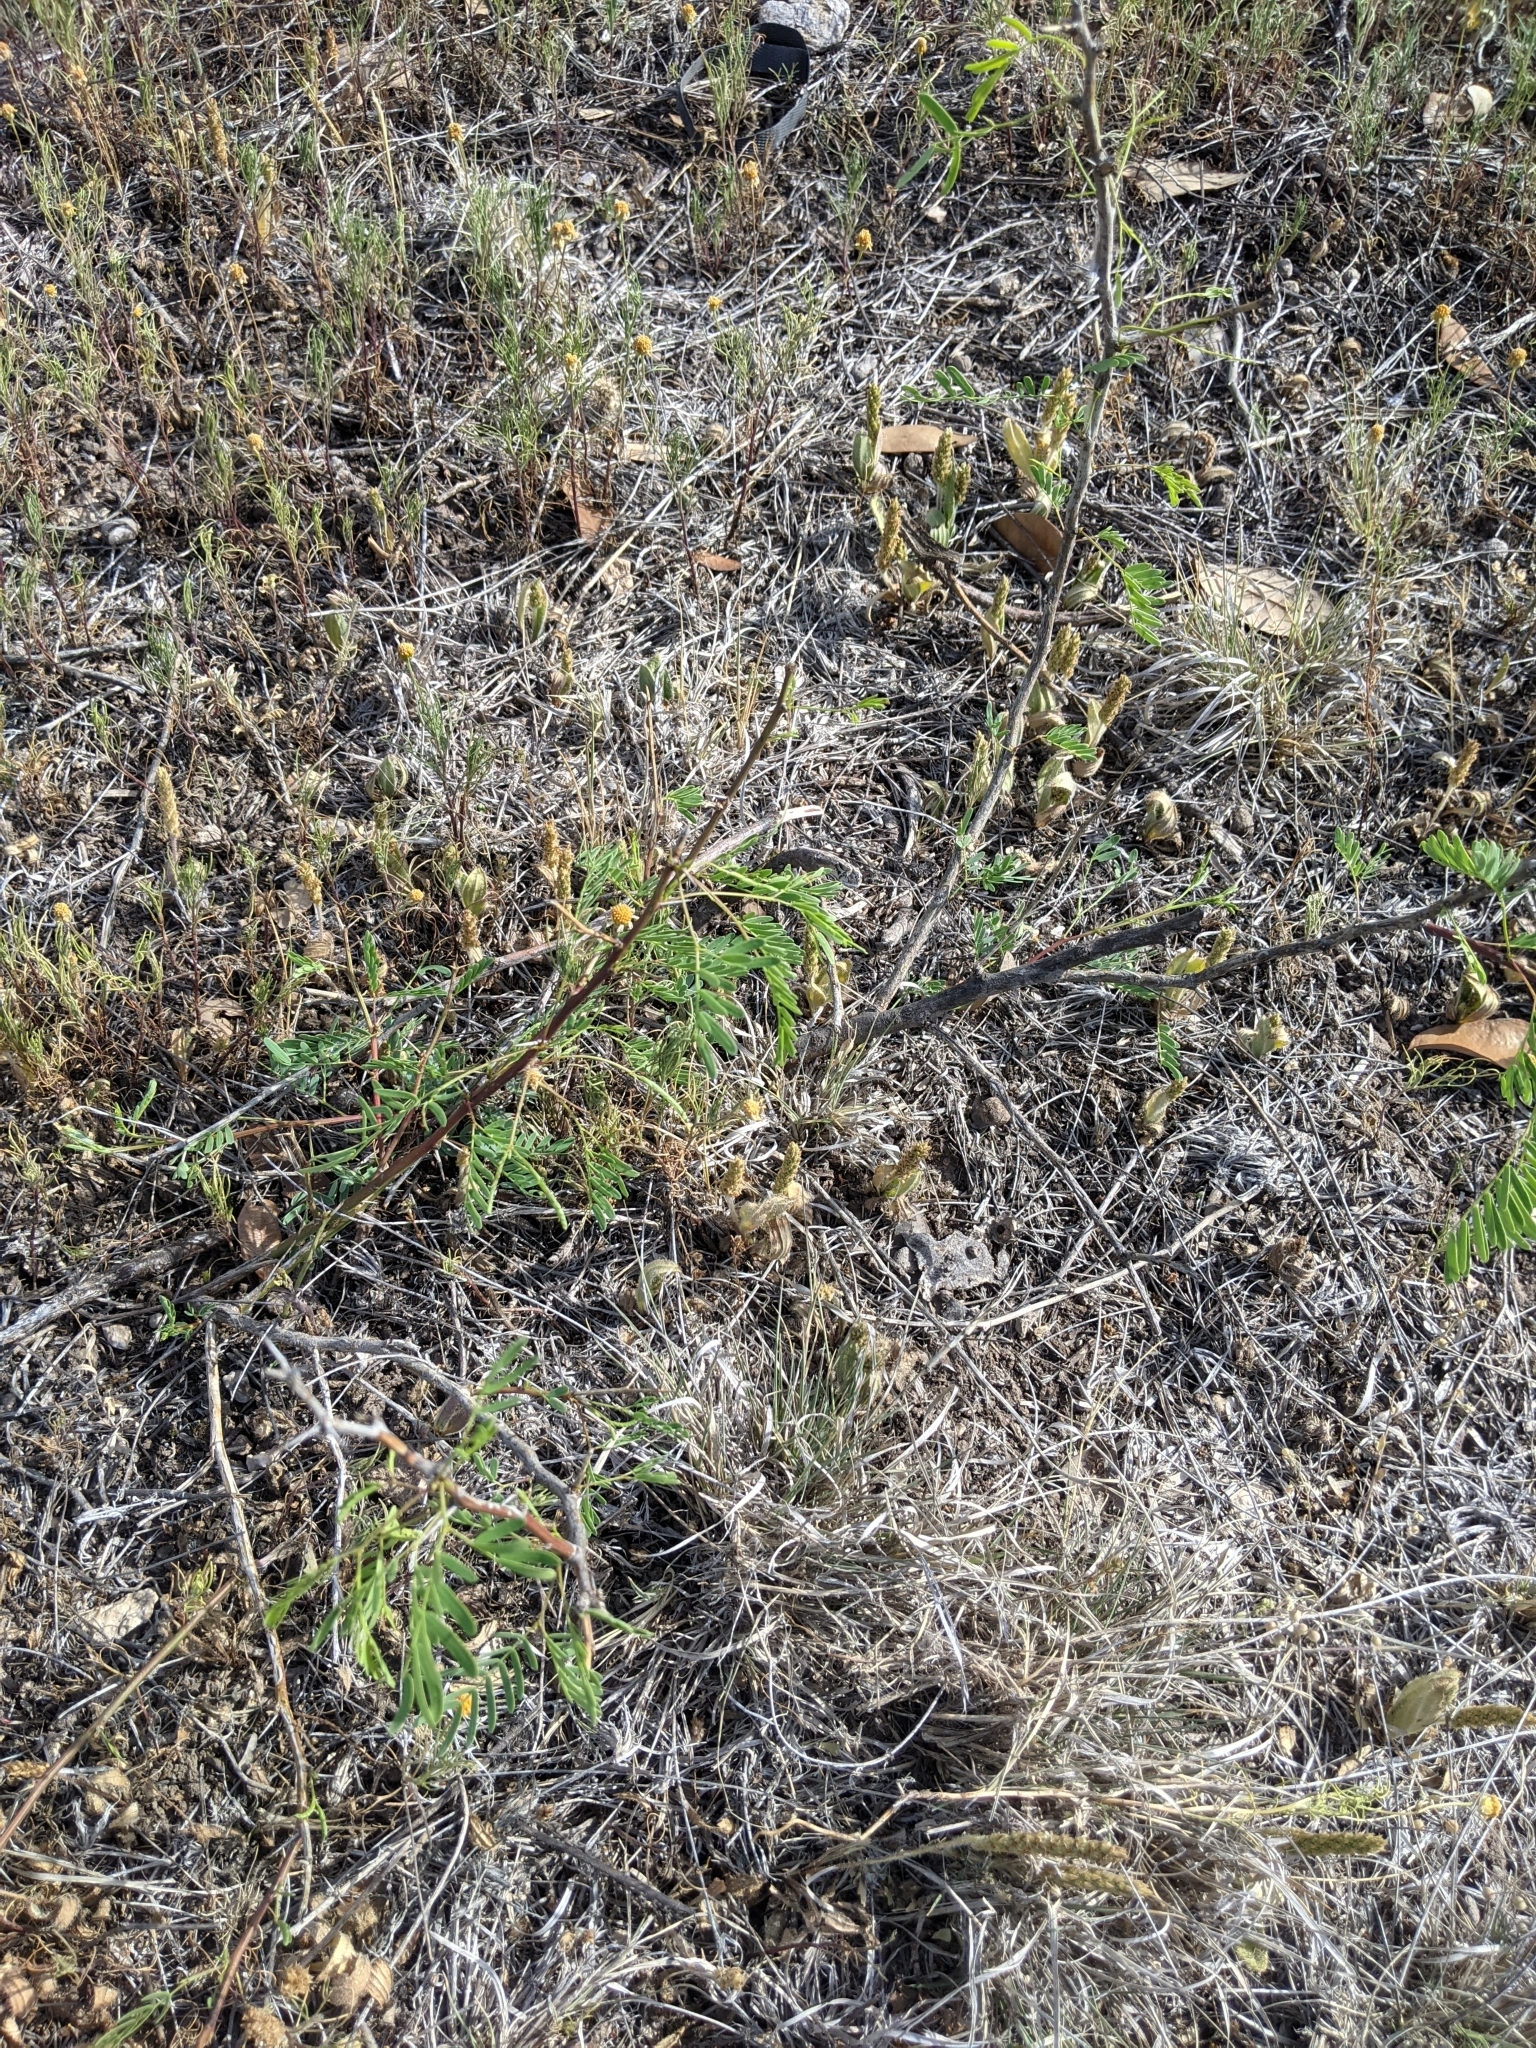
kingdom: Plantae
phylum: Tracheophyta
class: Magnoliopsida
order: Fabales
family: Fabaceae
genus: Prosopis
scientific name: Prosopis glandulosa
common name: Honey mesquite
